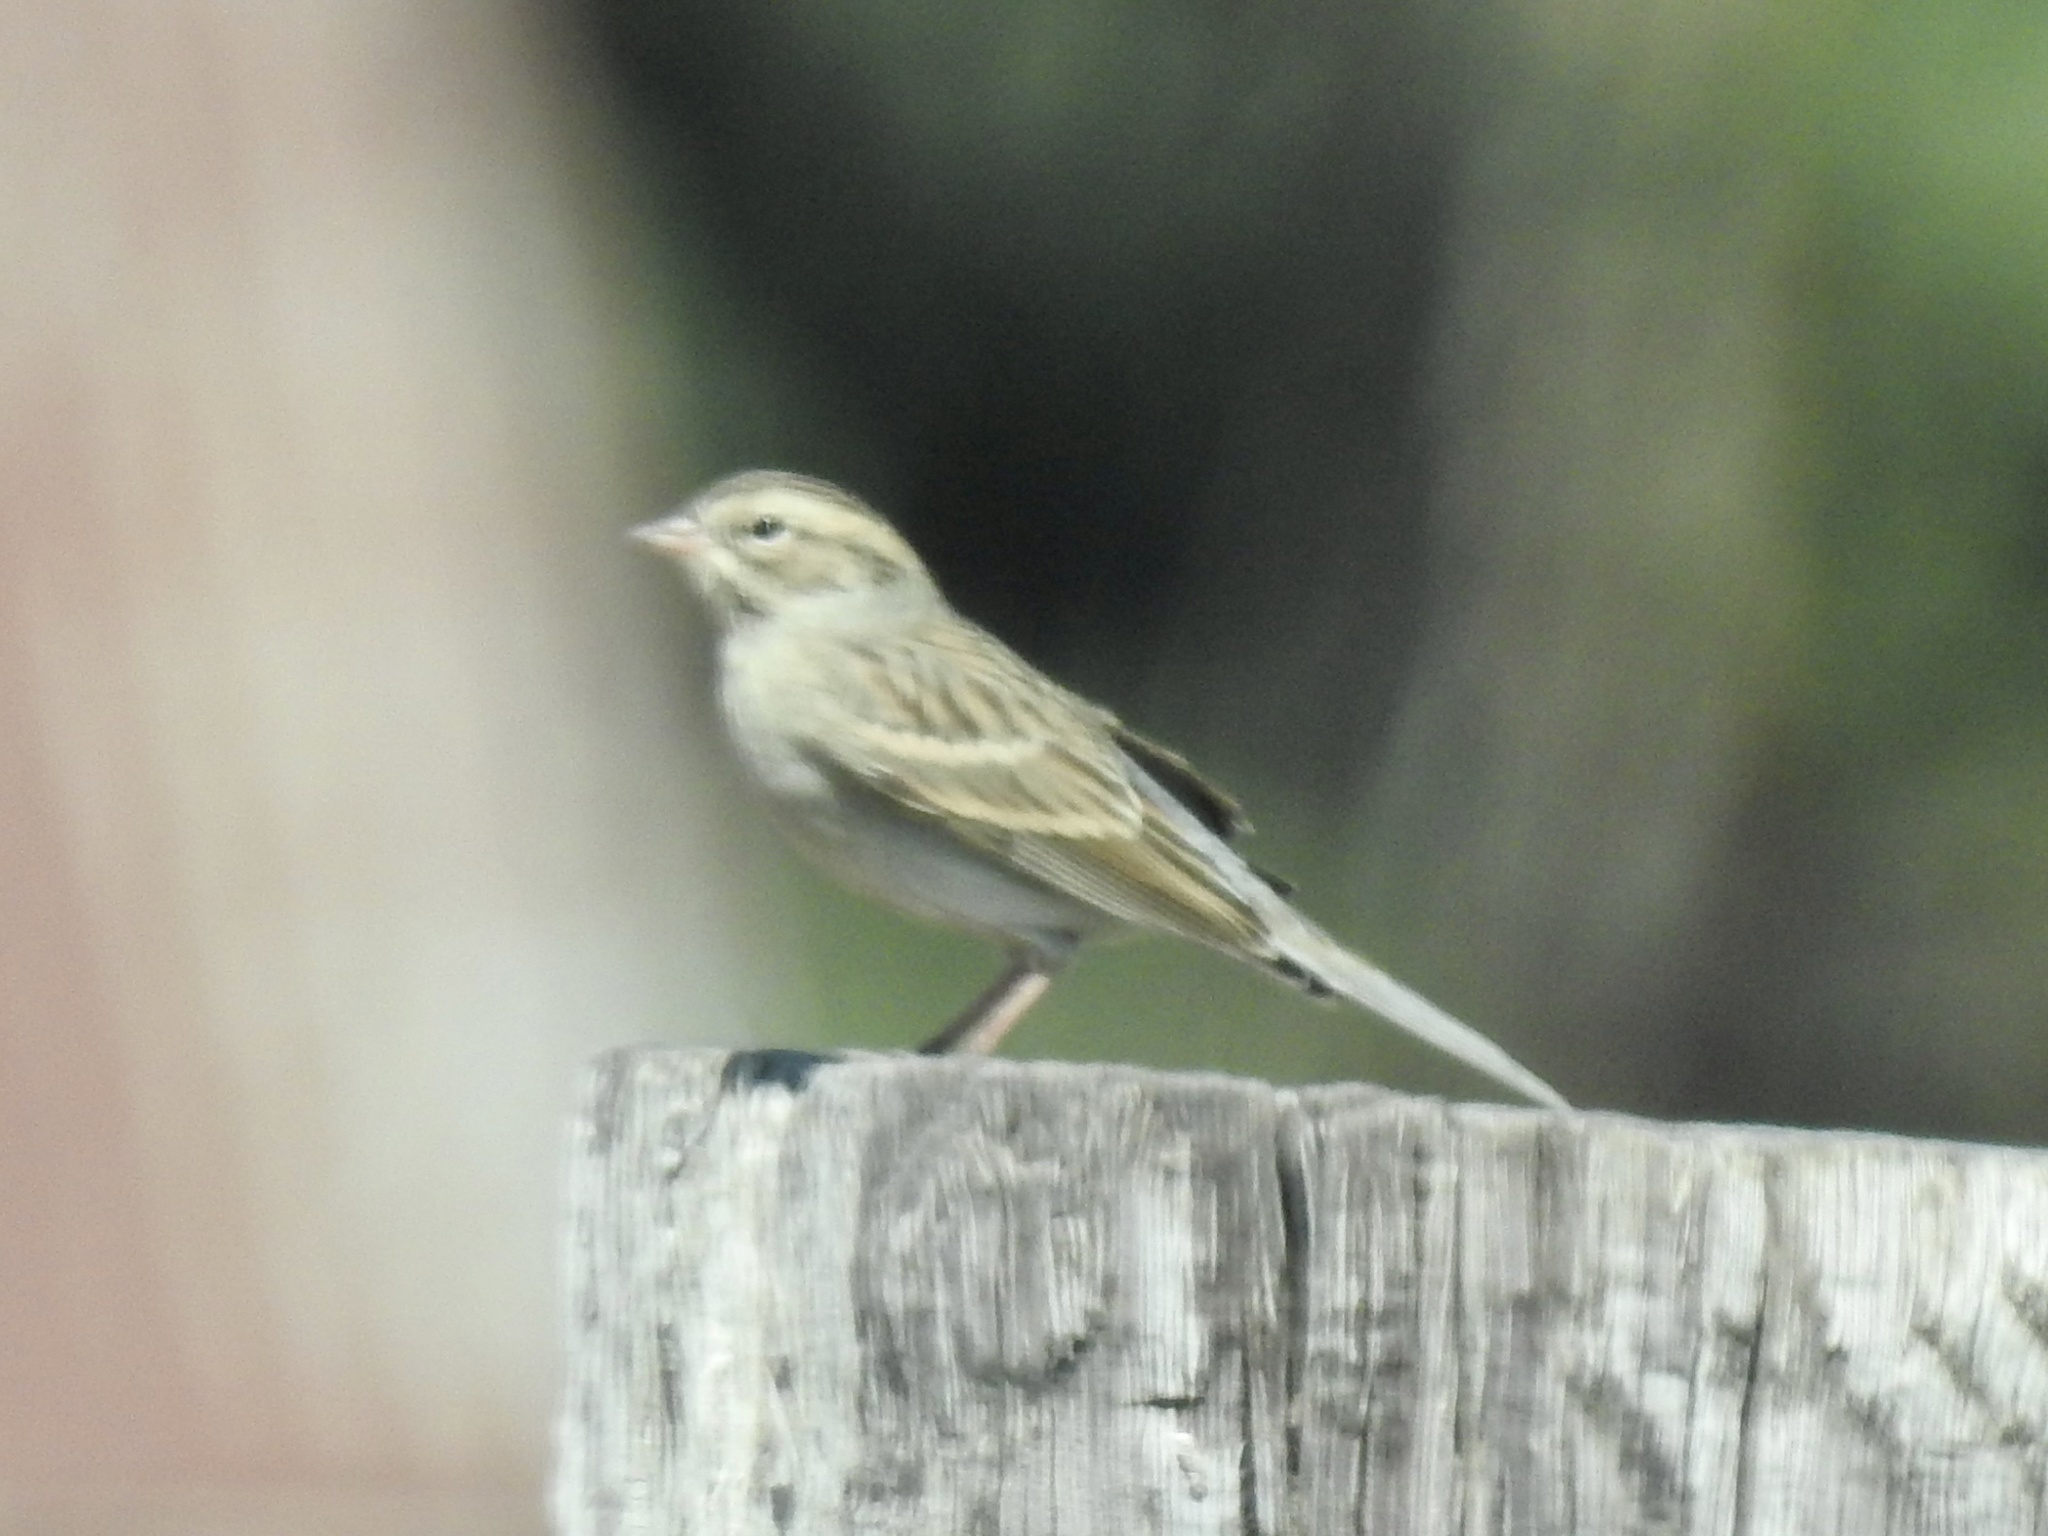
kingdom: Animalia
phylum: Chordata
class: Aves
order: Passeriformes
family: Passerellidae
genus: Spizella
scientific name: Spizella pallida
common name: Clay-colored sparrow
